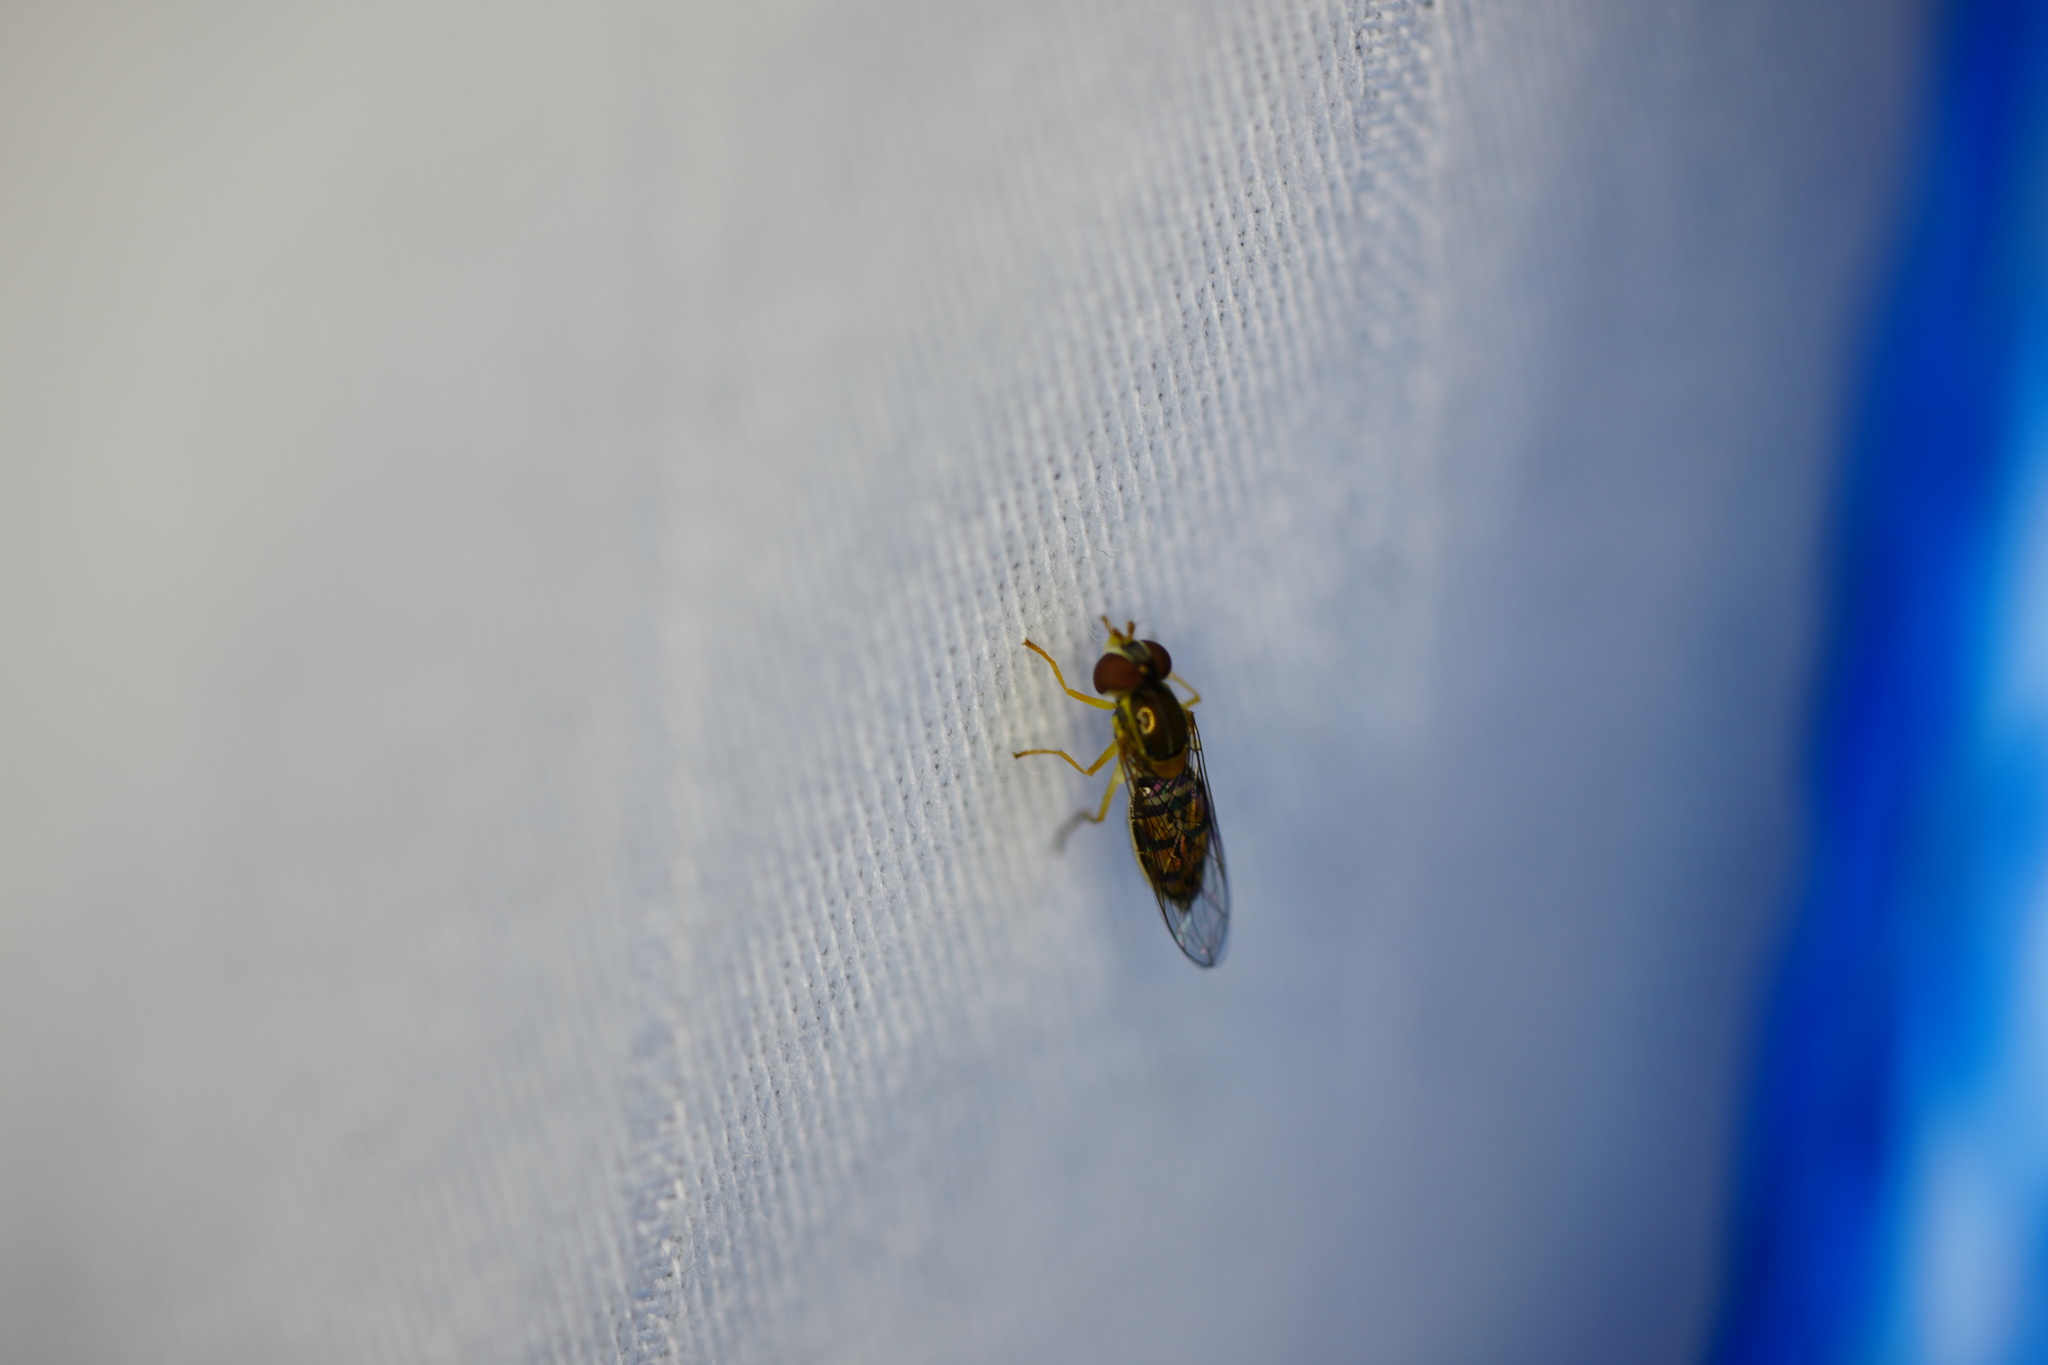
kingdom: Animalia
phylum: Arthropoda
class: Insecta
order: Diptera
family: Syrphidae
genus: Toxomerus
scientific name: Toxomerus marginatus
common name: Syrphid fly
